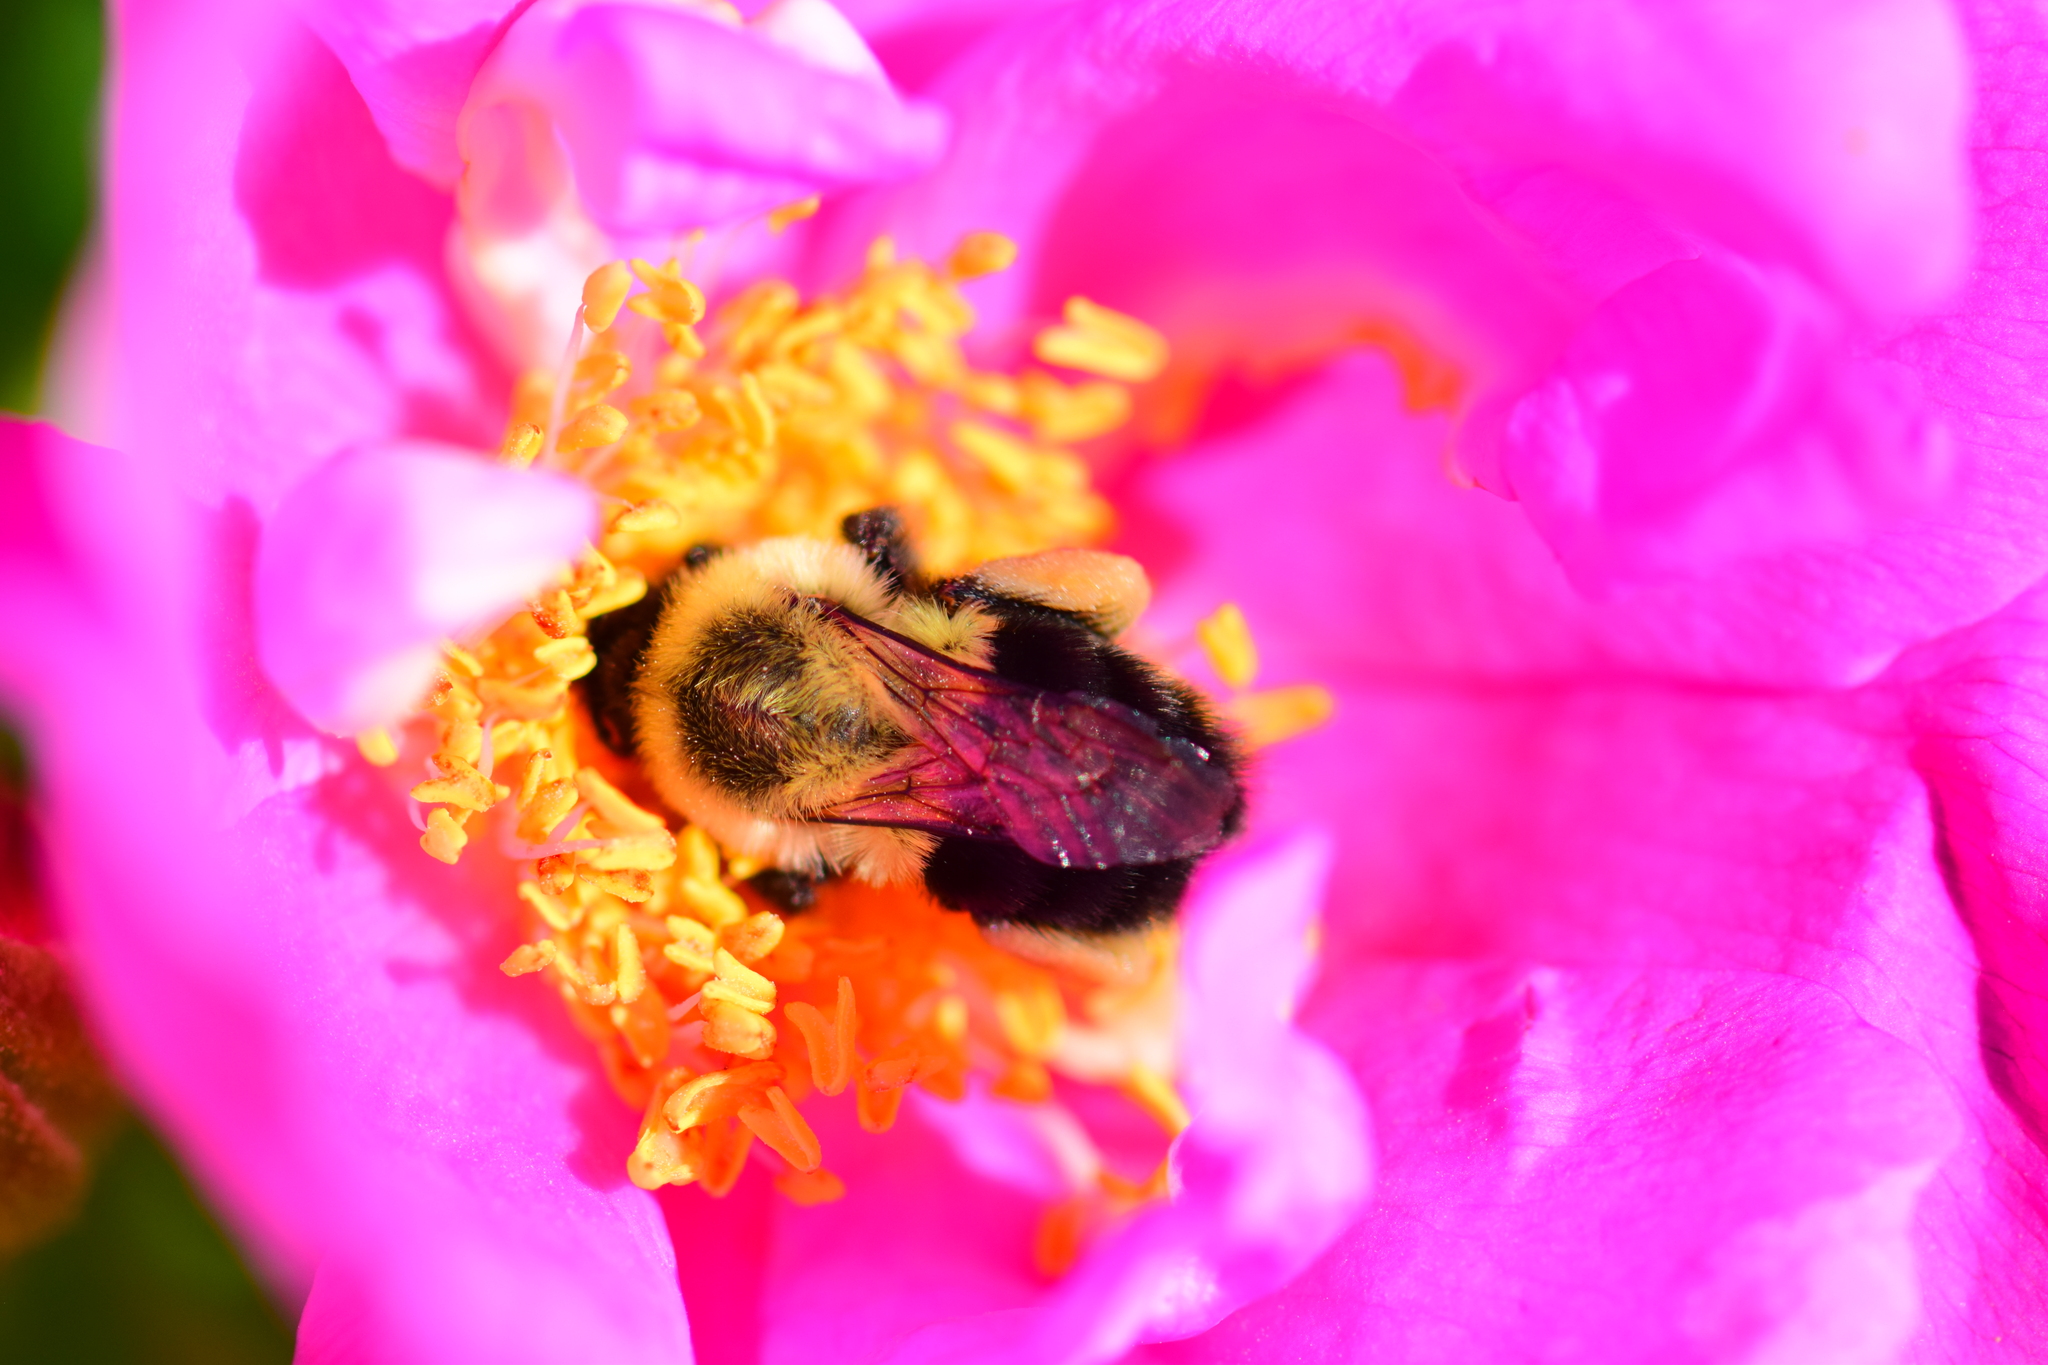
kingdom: Animalia
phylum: Arthropoda
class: Insecta
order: Hymenoptera
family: Apidae
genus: Bombus
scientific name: Bombus impatiens
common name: Common eastern bumble bee
